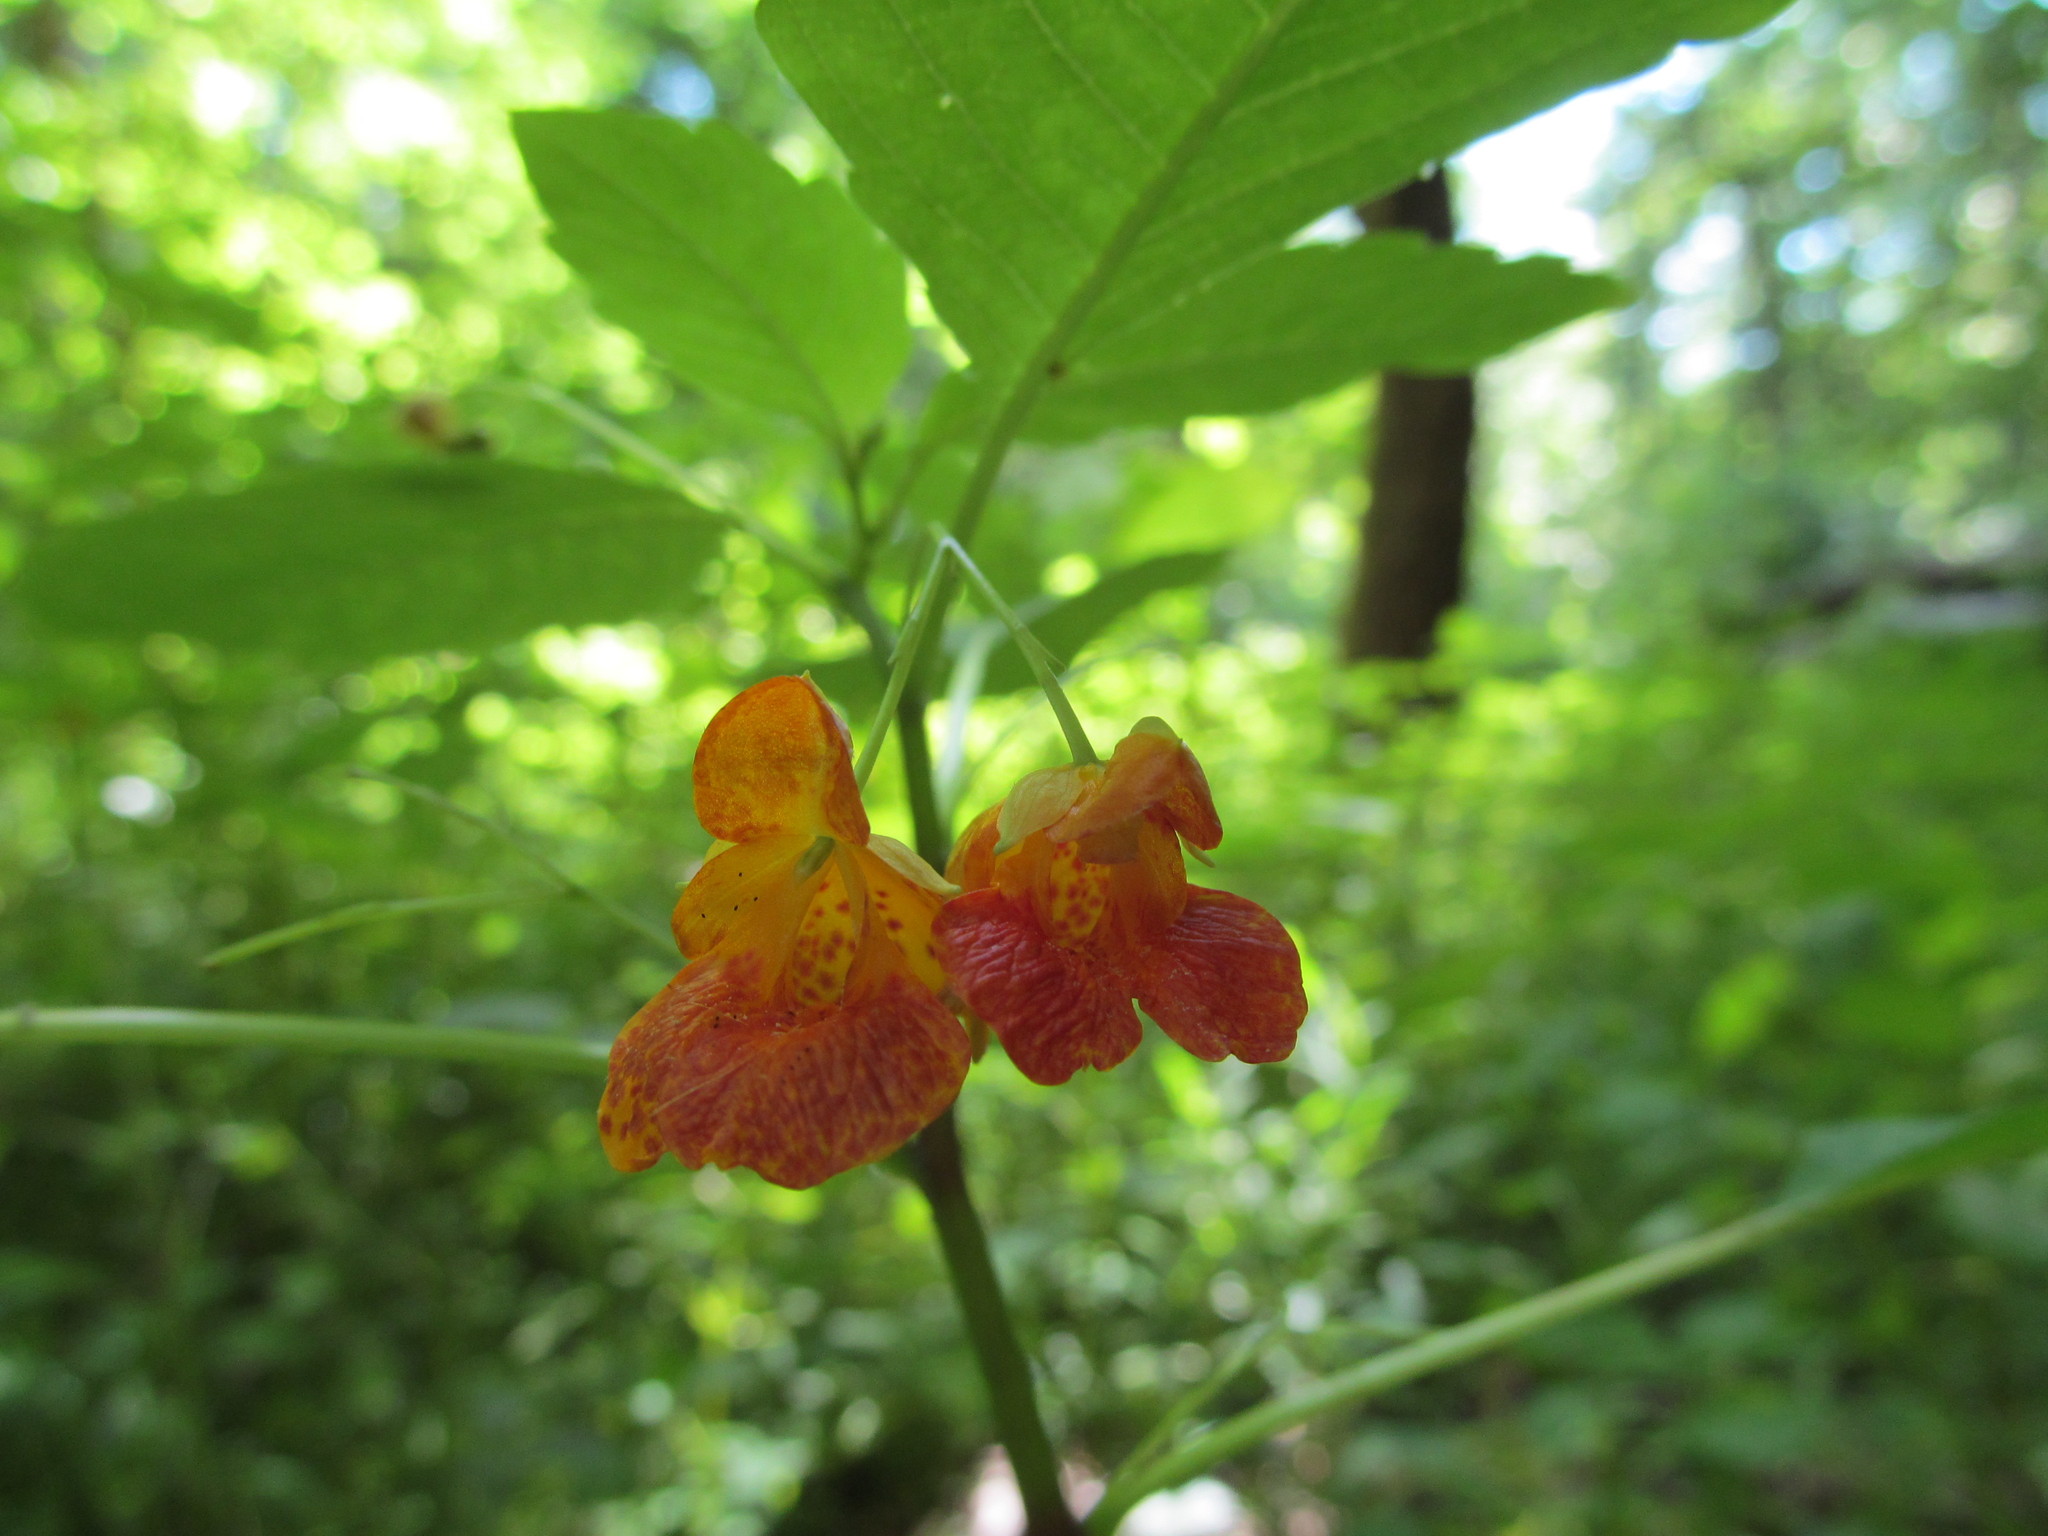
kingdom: Plantae
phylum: Tracheophyta
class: Magnoliopsida
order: Ericales
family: Balsaminaceae
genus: Impatiens
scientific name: Impatiens capensis
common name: Orange balsam
